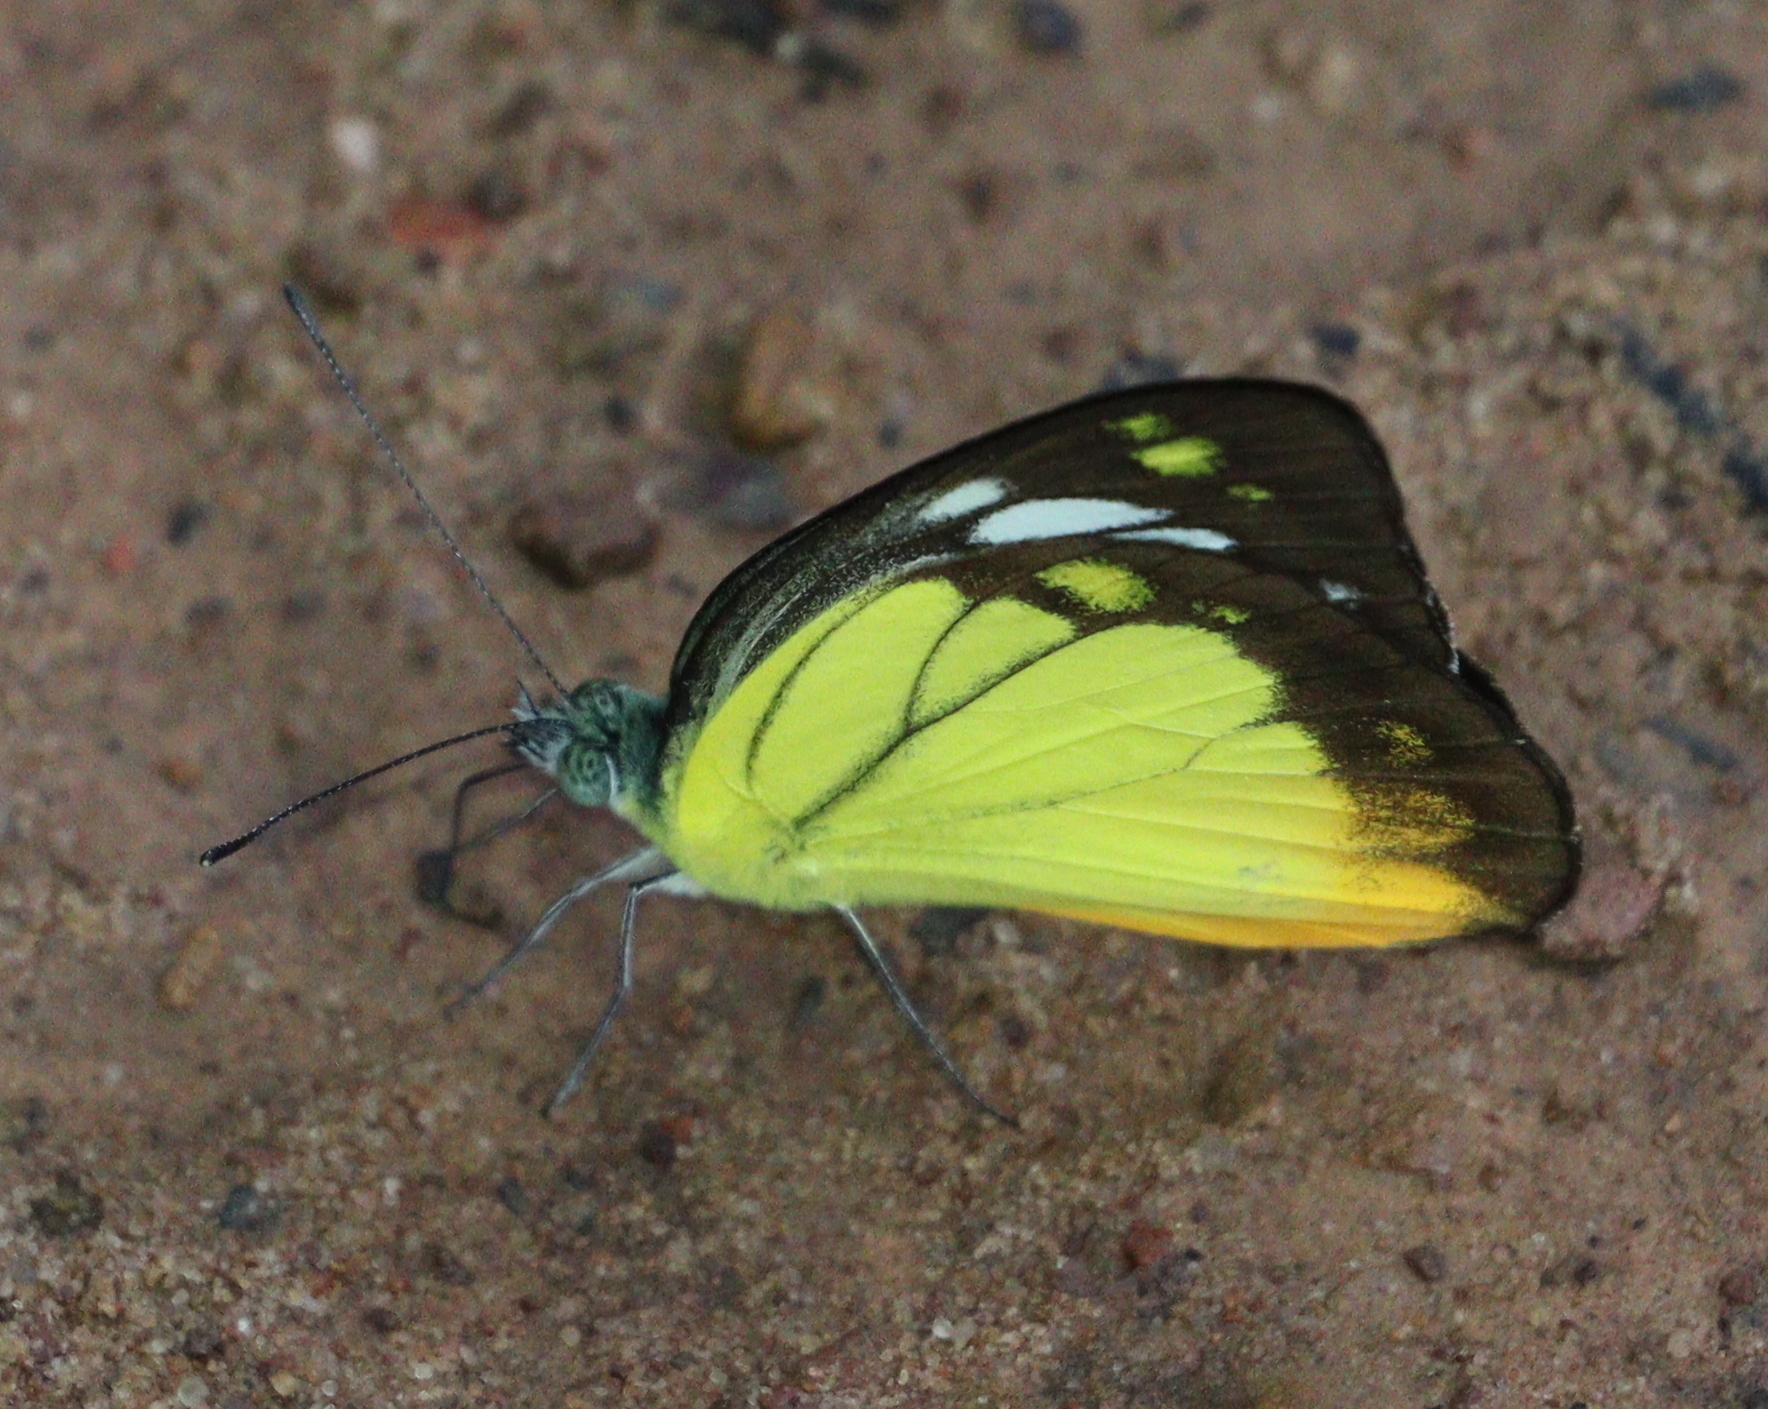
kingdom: Animalia
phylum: Arthropoda
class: Insecta
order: Lepidoptera
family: Pieridae
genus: Cepora
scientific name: Cepora iudith
